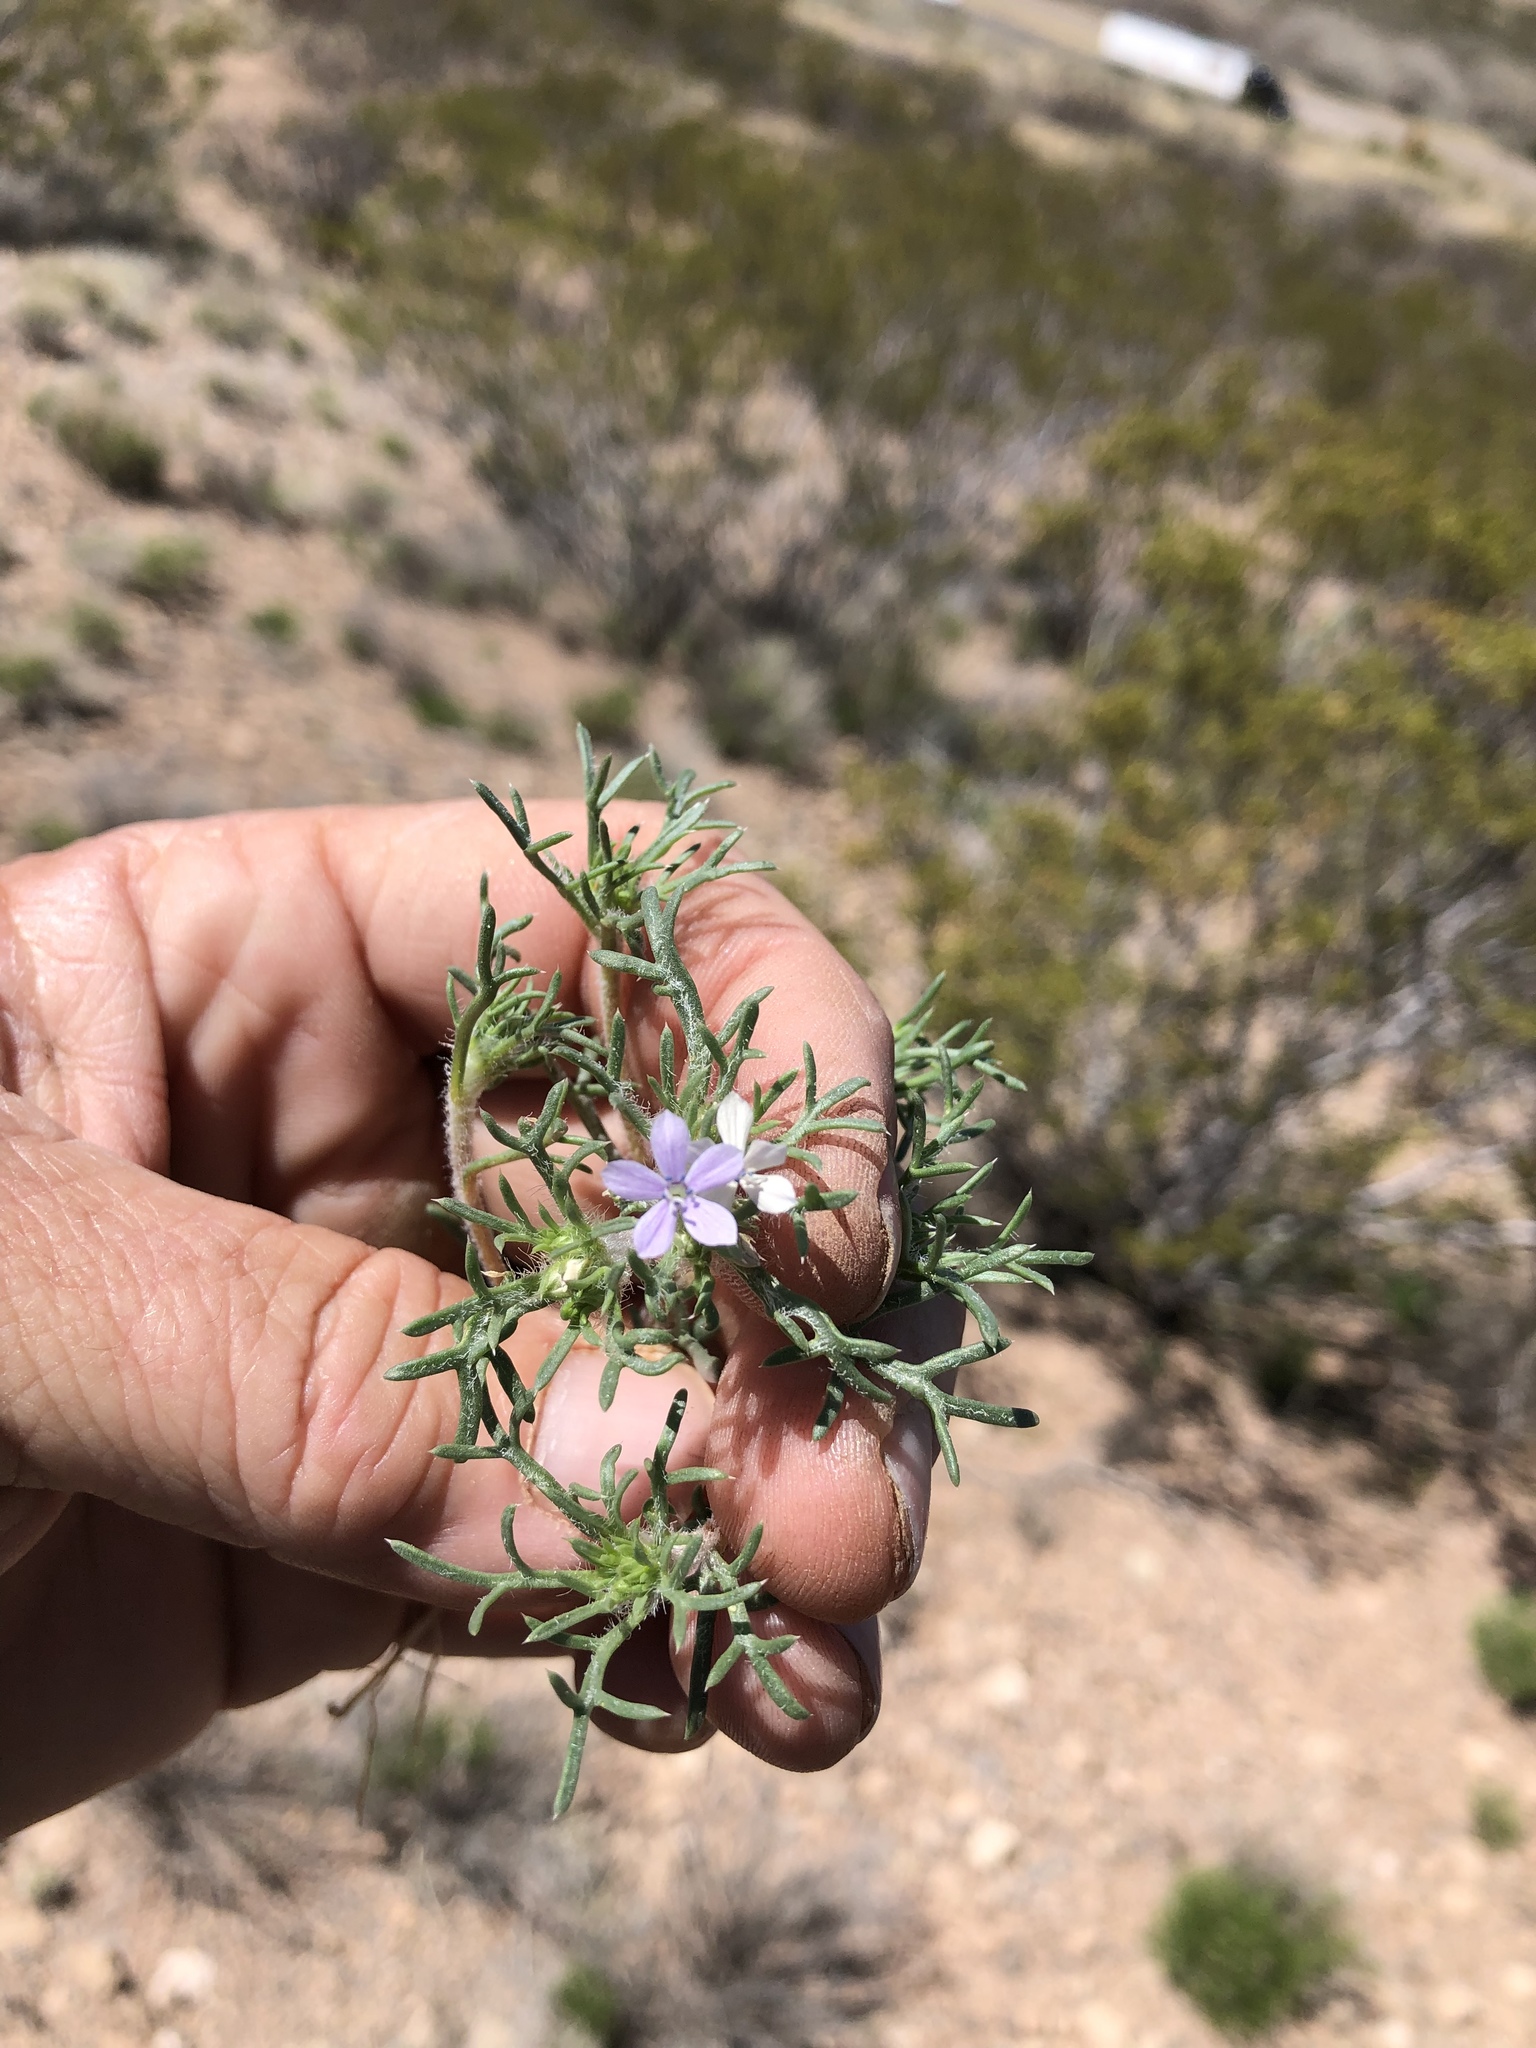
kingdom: Plantae
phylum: Tracheophyta
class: Magnoliopsida
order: Ericales
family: Polemoniaceae
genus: Ipomopsis
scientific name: Ipomopsis pumila
